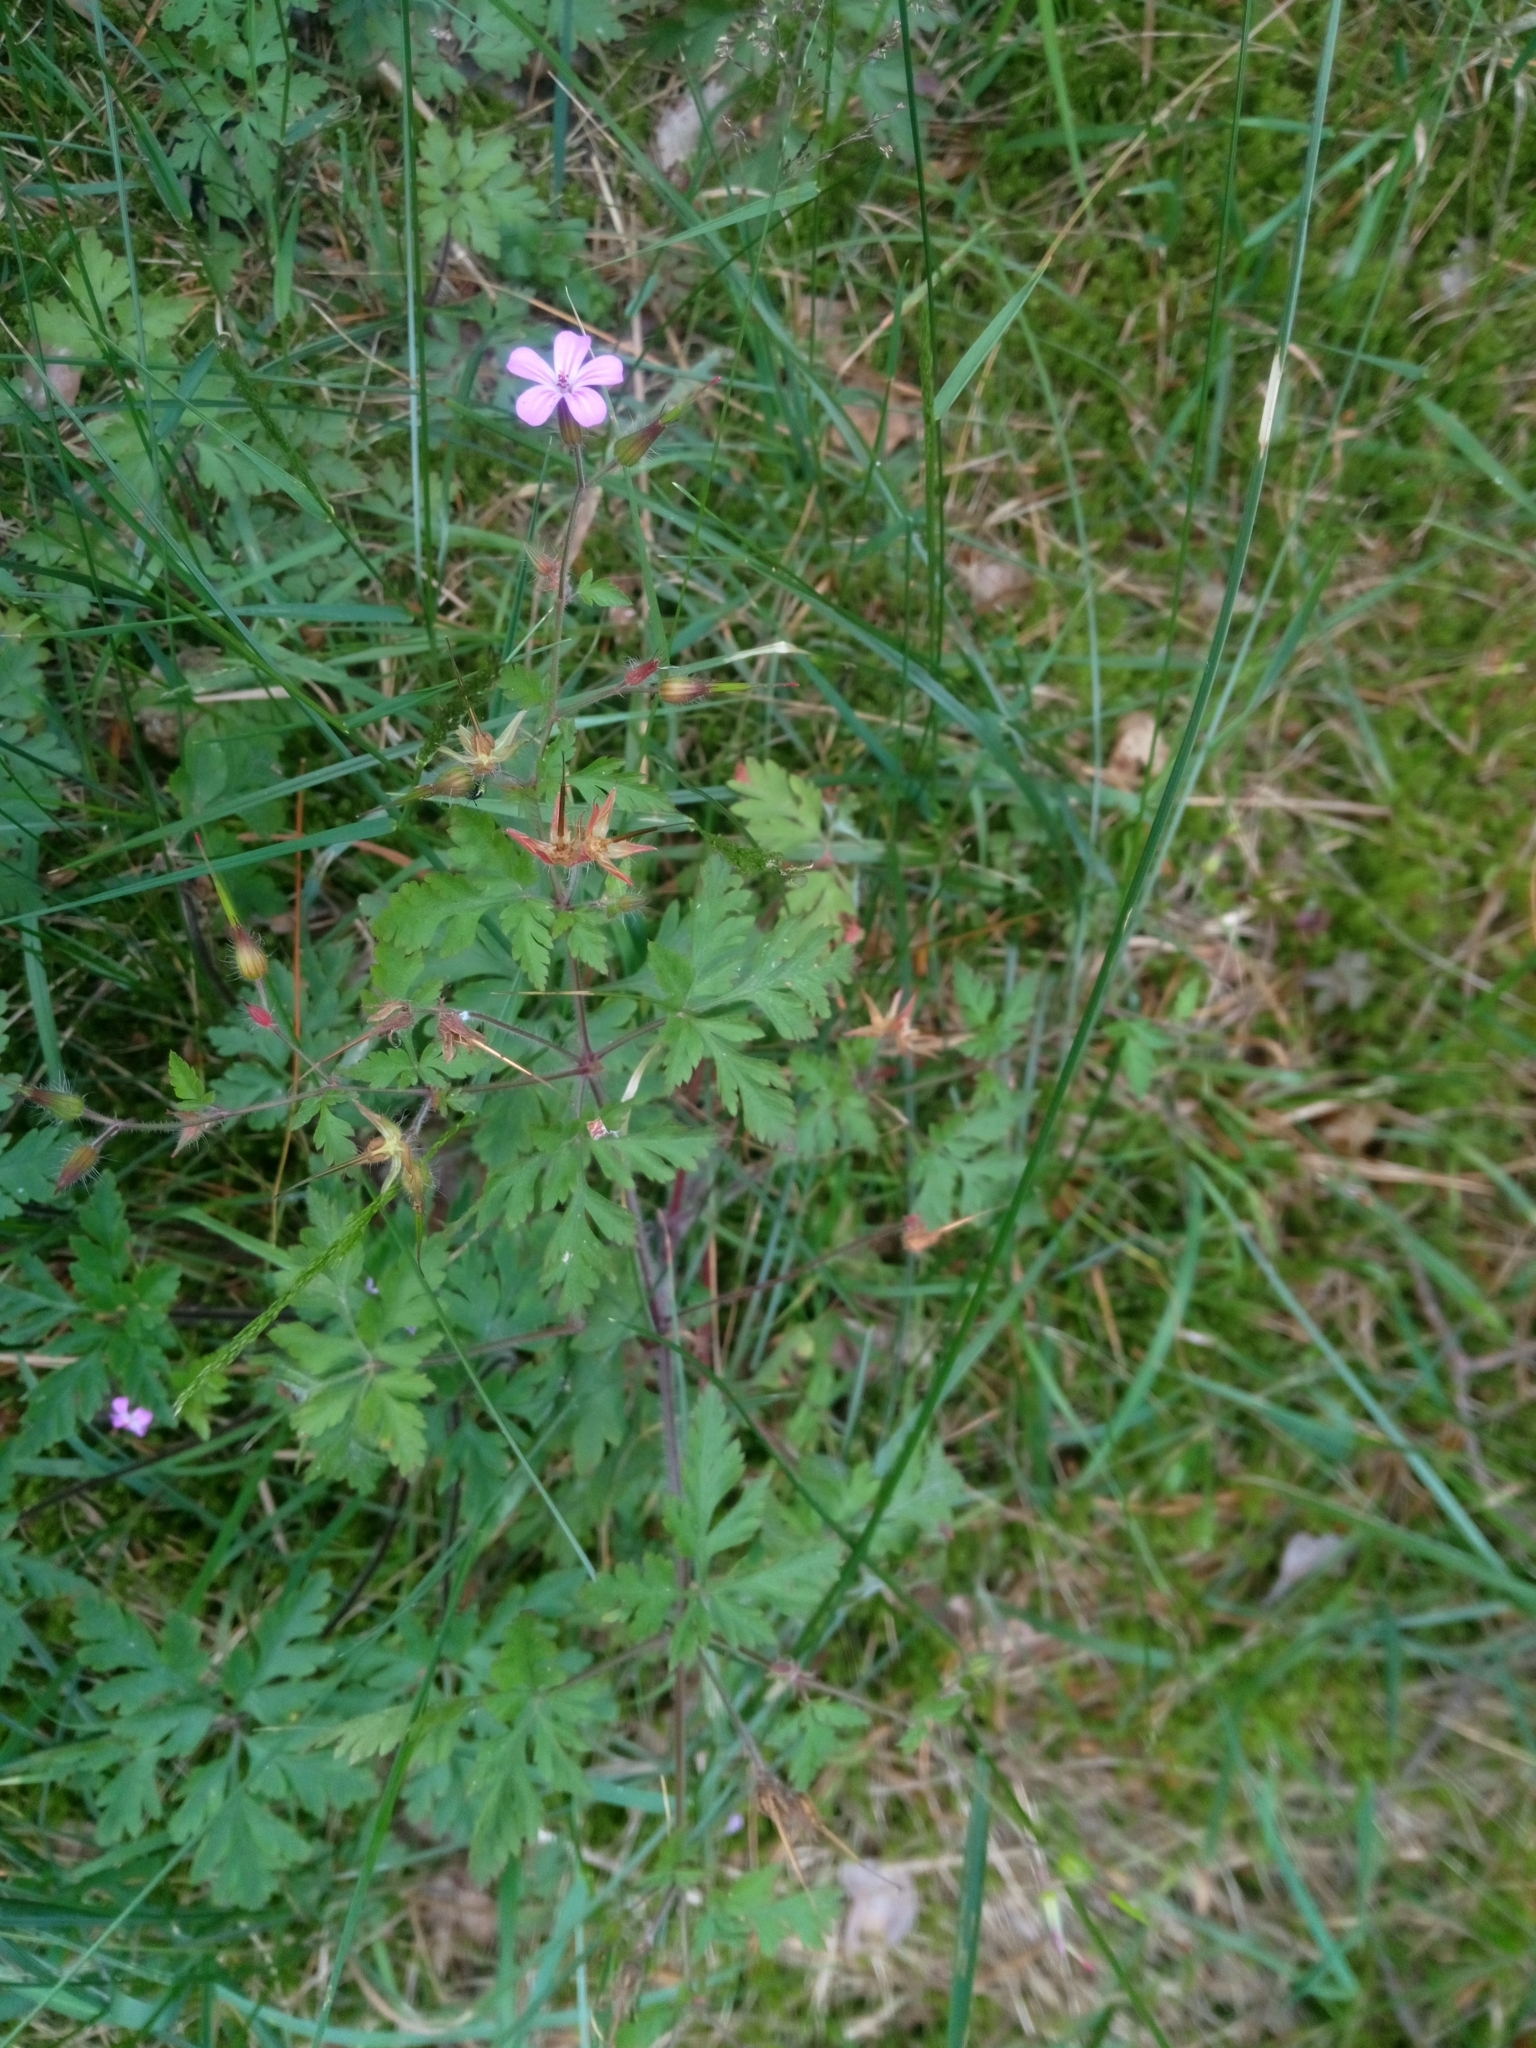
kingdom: Plantae
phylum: Tracheophyta
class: Magnoliopsida
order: Geraniales
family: Geraniaceae
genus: Geranium
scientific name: Geranium robertianum
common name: Herb-robert
